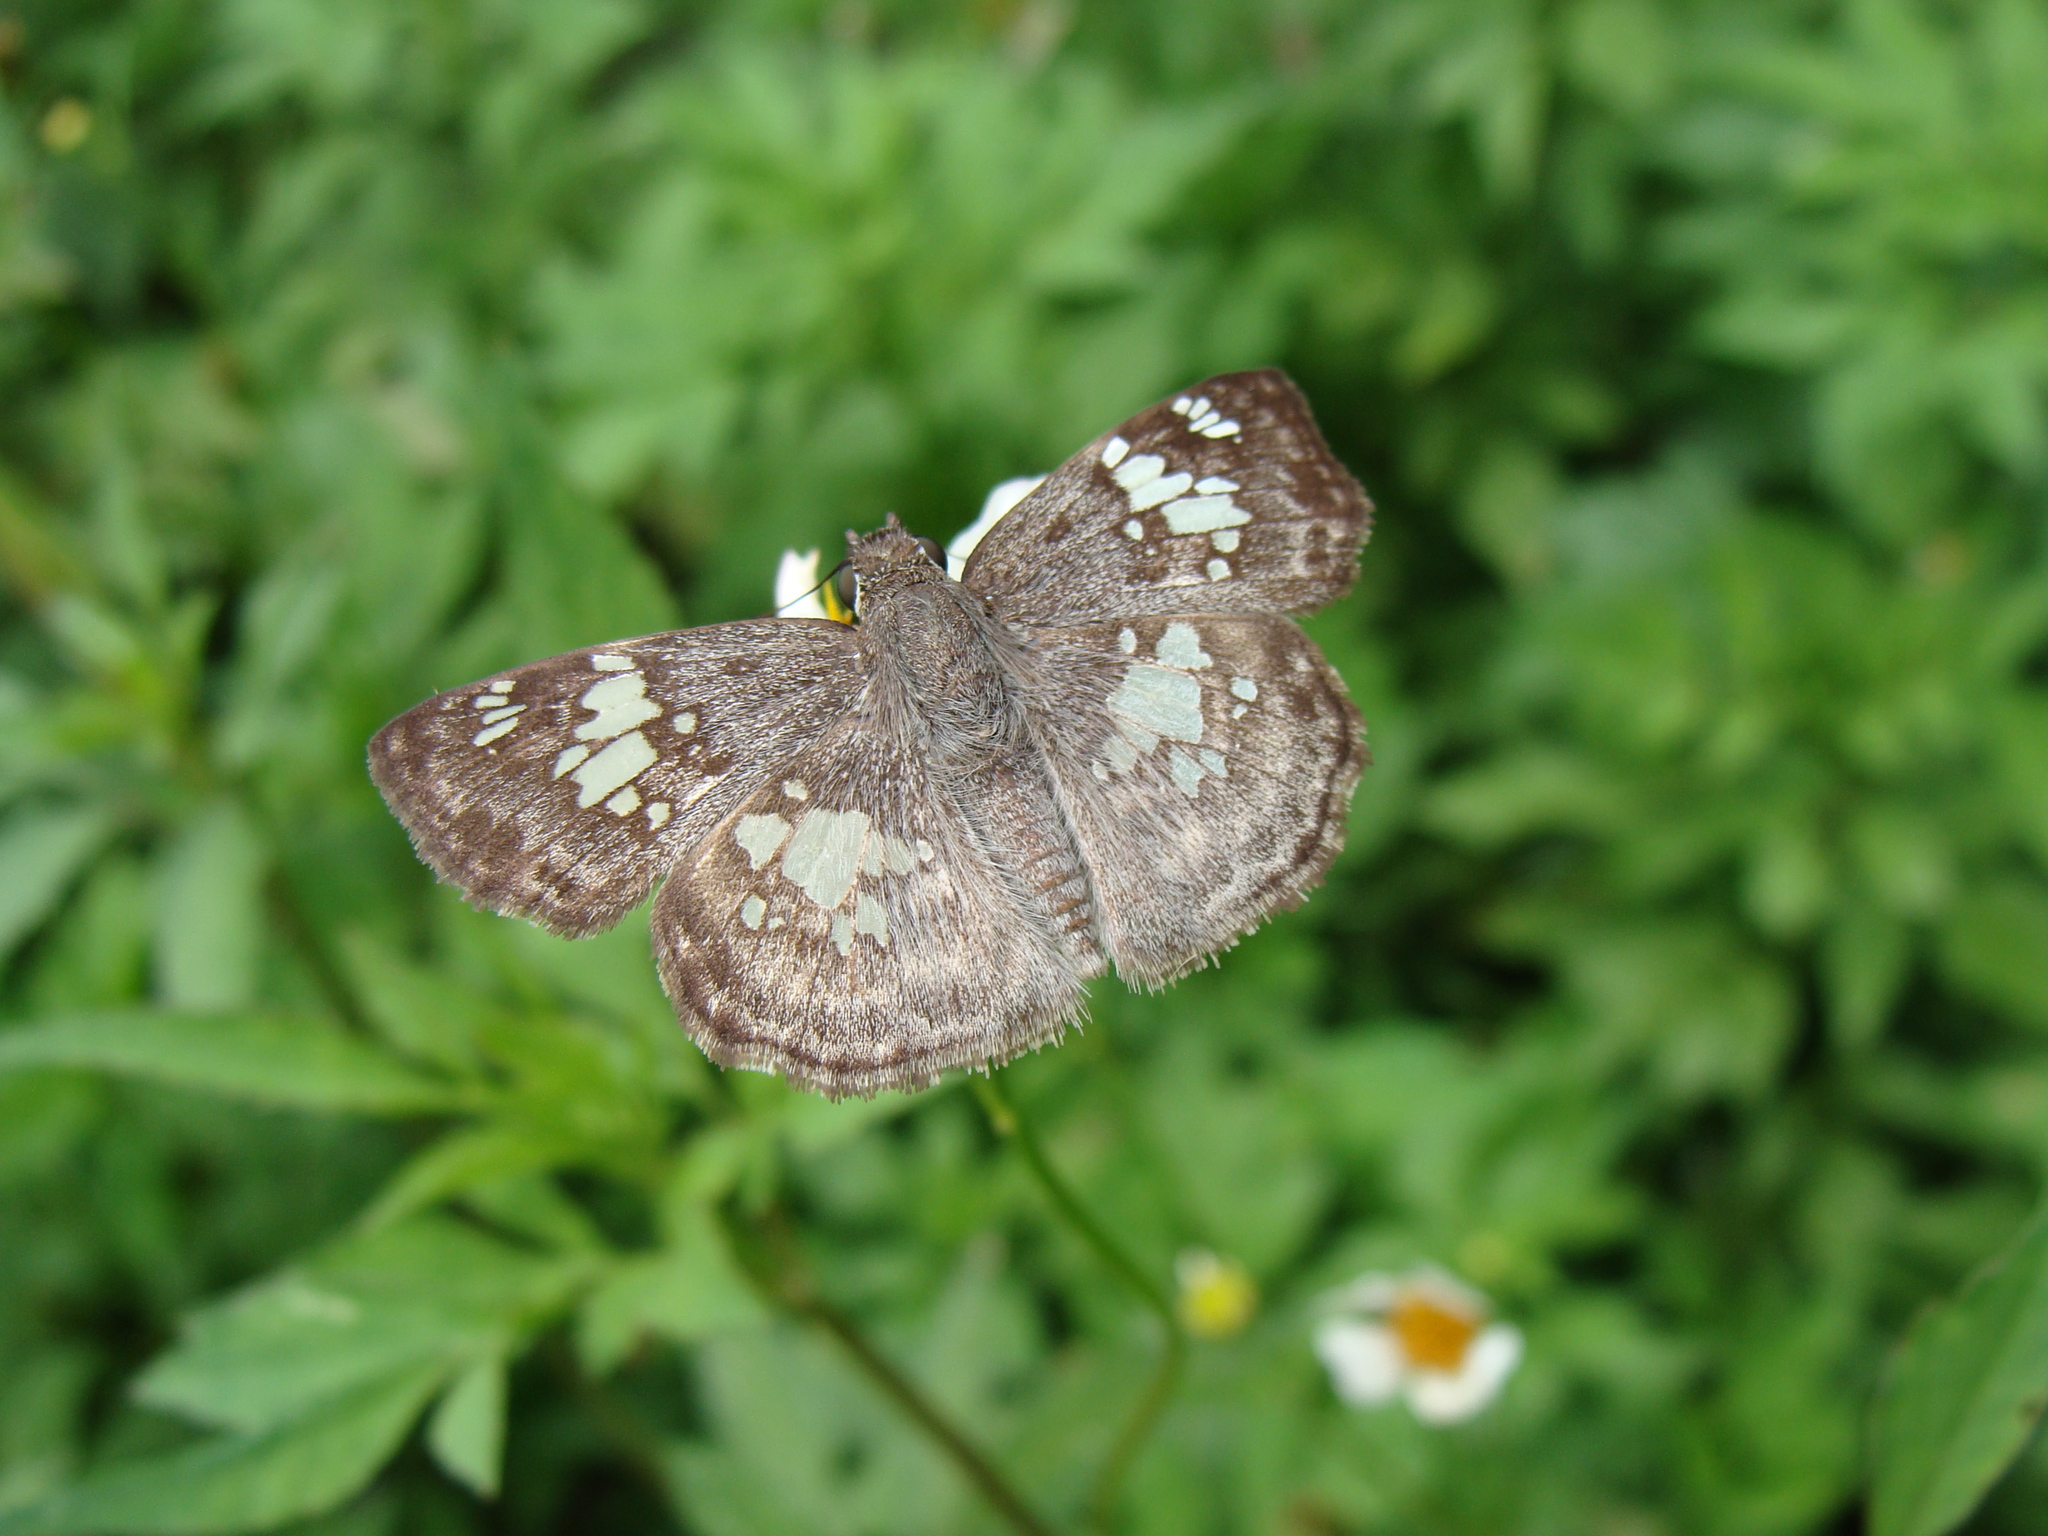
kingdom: Animalia
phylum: Arthropoda
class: Insecta
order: Lepidoptera
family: Hesperiidae
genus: Xenophanes
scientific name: Xenophanes tryxus
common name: Glassy-winged skipper
